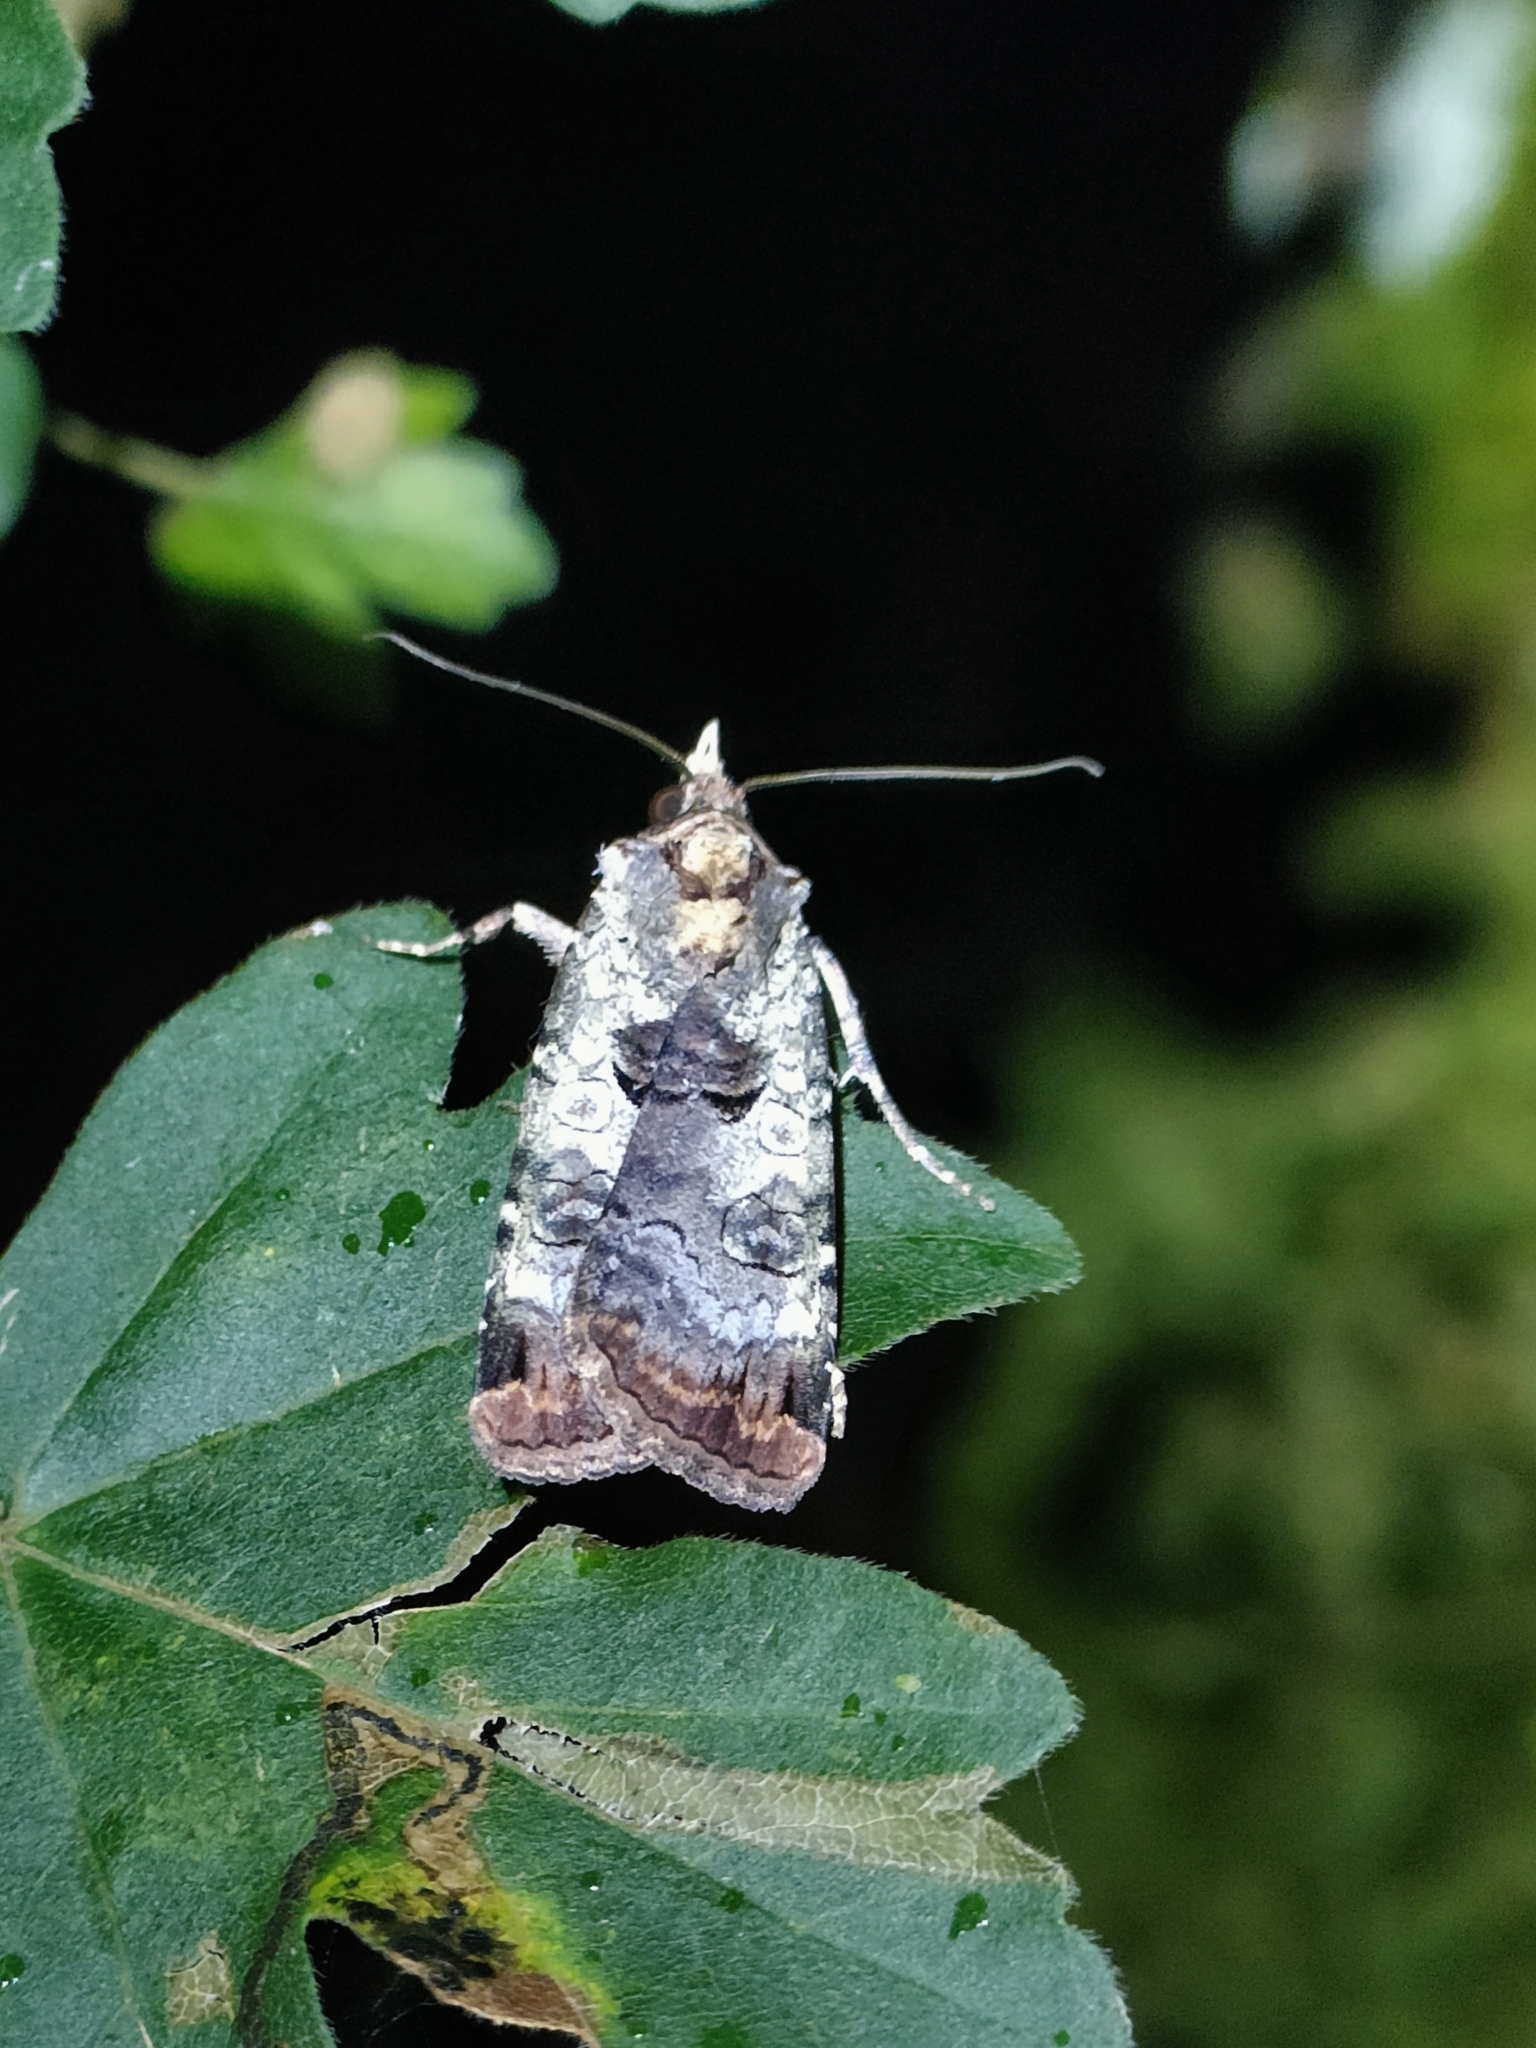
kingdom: Animalia
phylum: Arthropoda
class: Insecta
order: Lepidoptera
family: Noctuidae
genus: Epilecta
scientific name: Epilecta linogrisea
